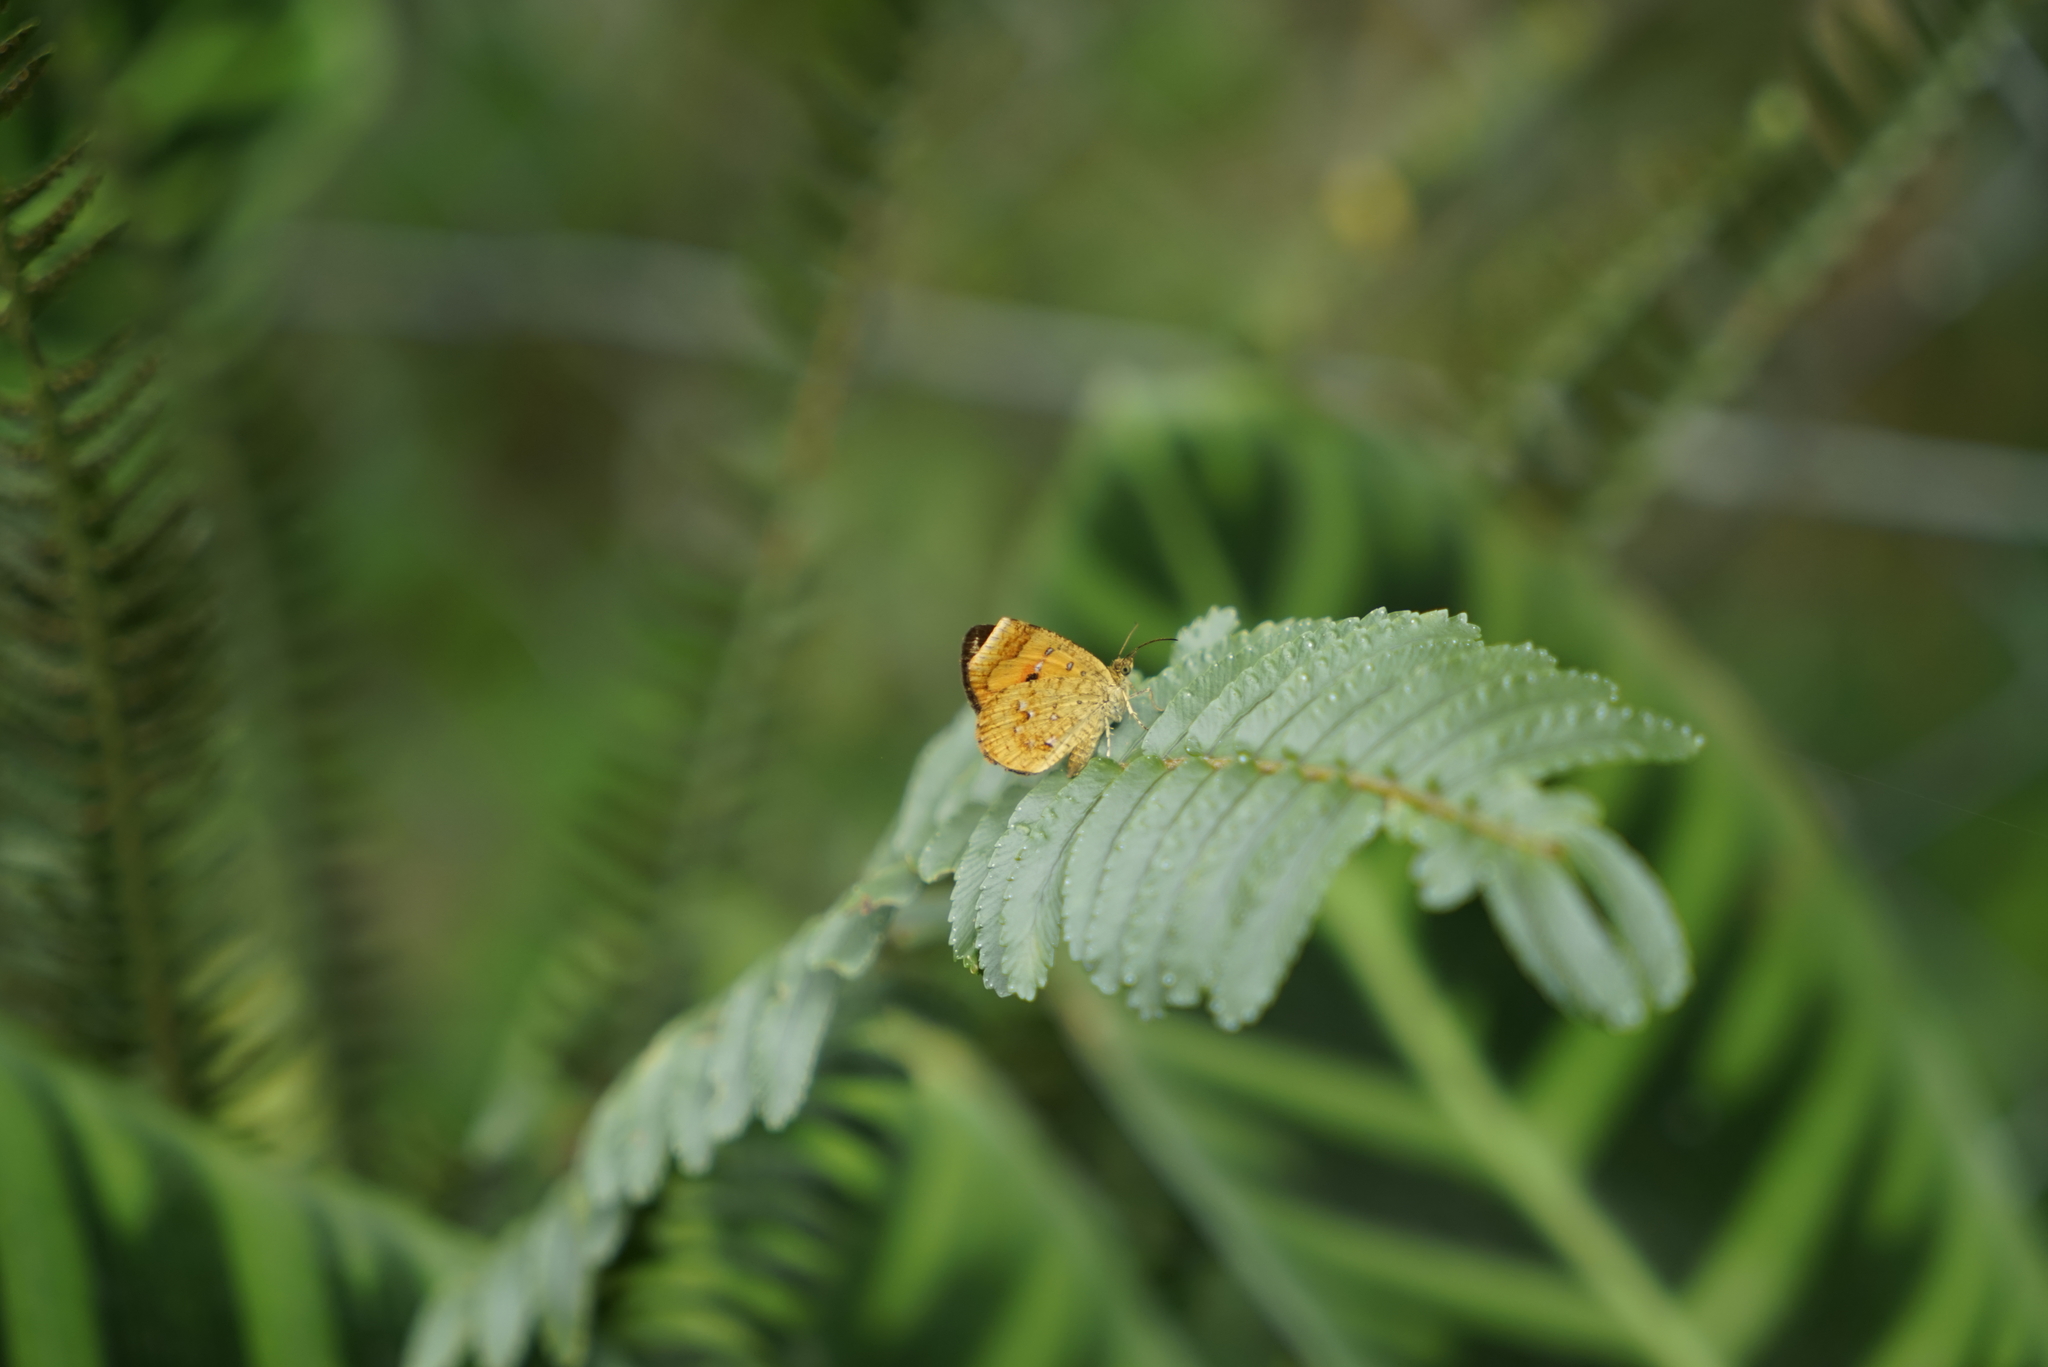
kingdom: Animalia
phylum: Arthropoda
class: Insecta
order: Lepidoptera
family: Callidulidae
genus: Callidula
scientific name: Callidula sakuni
